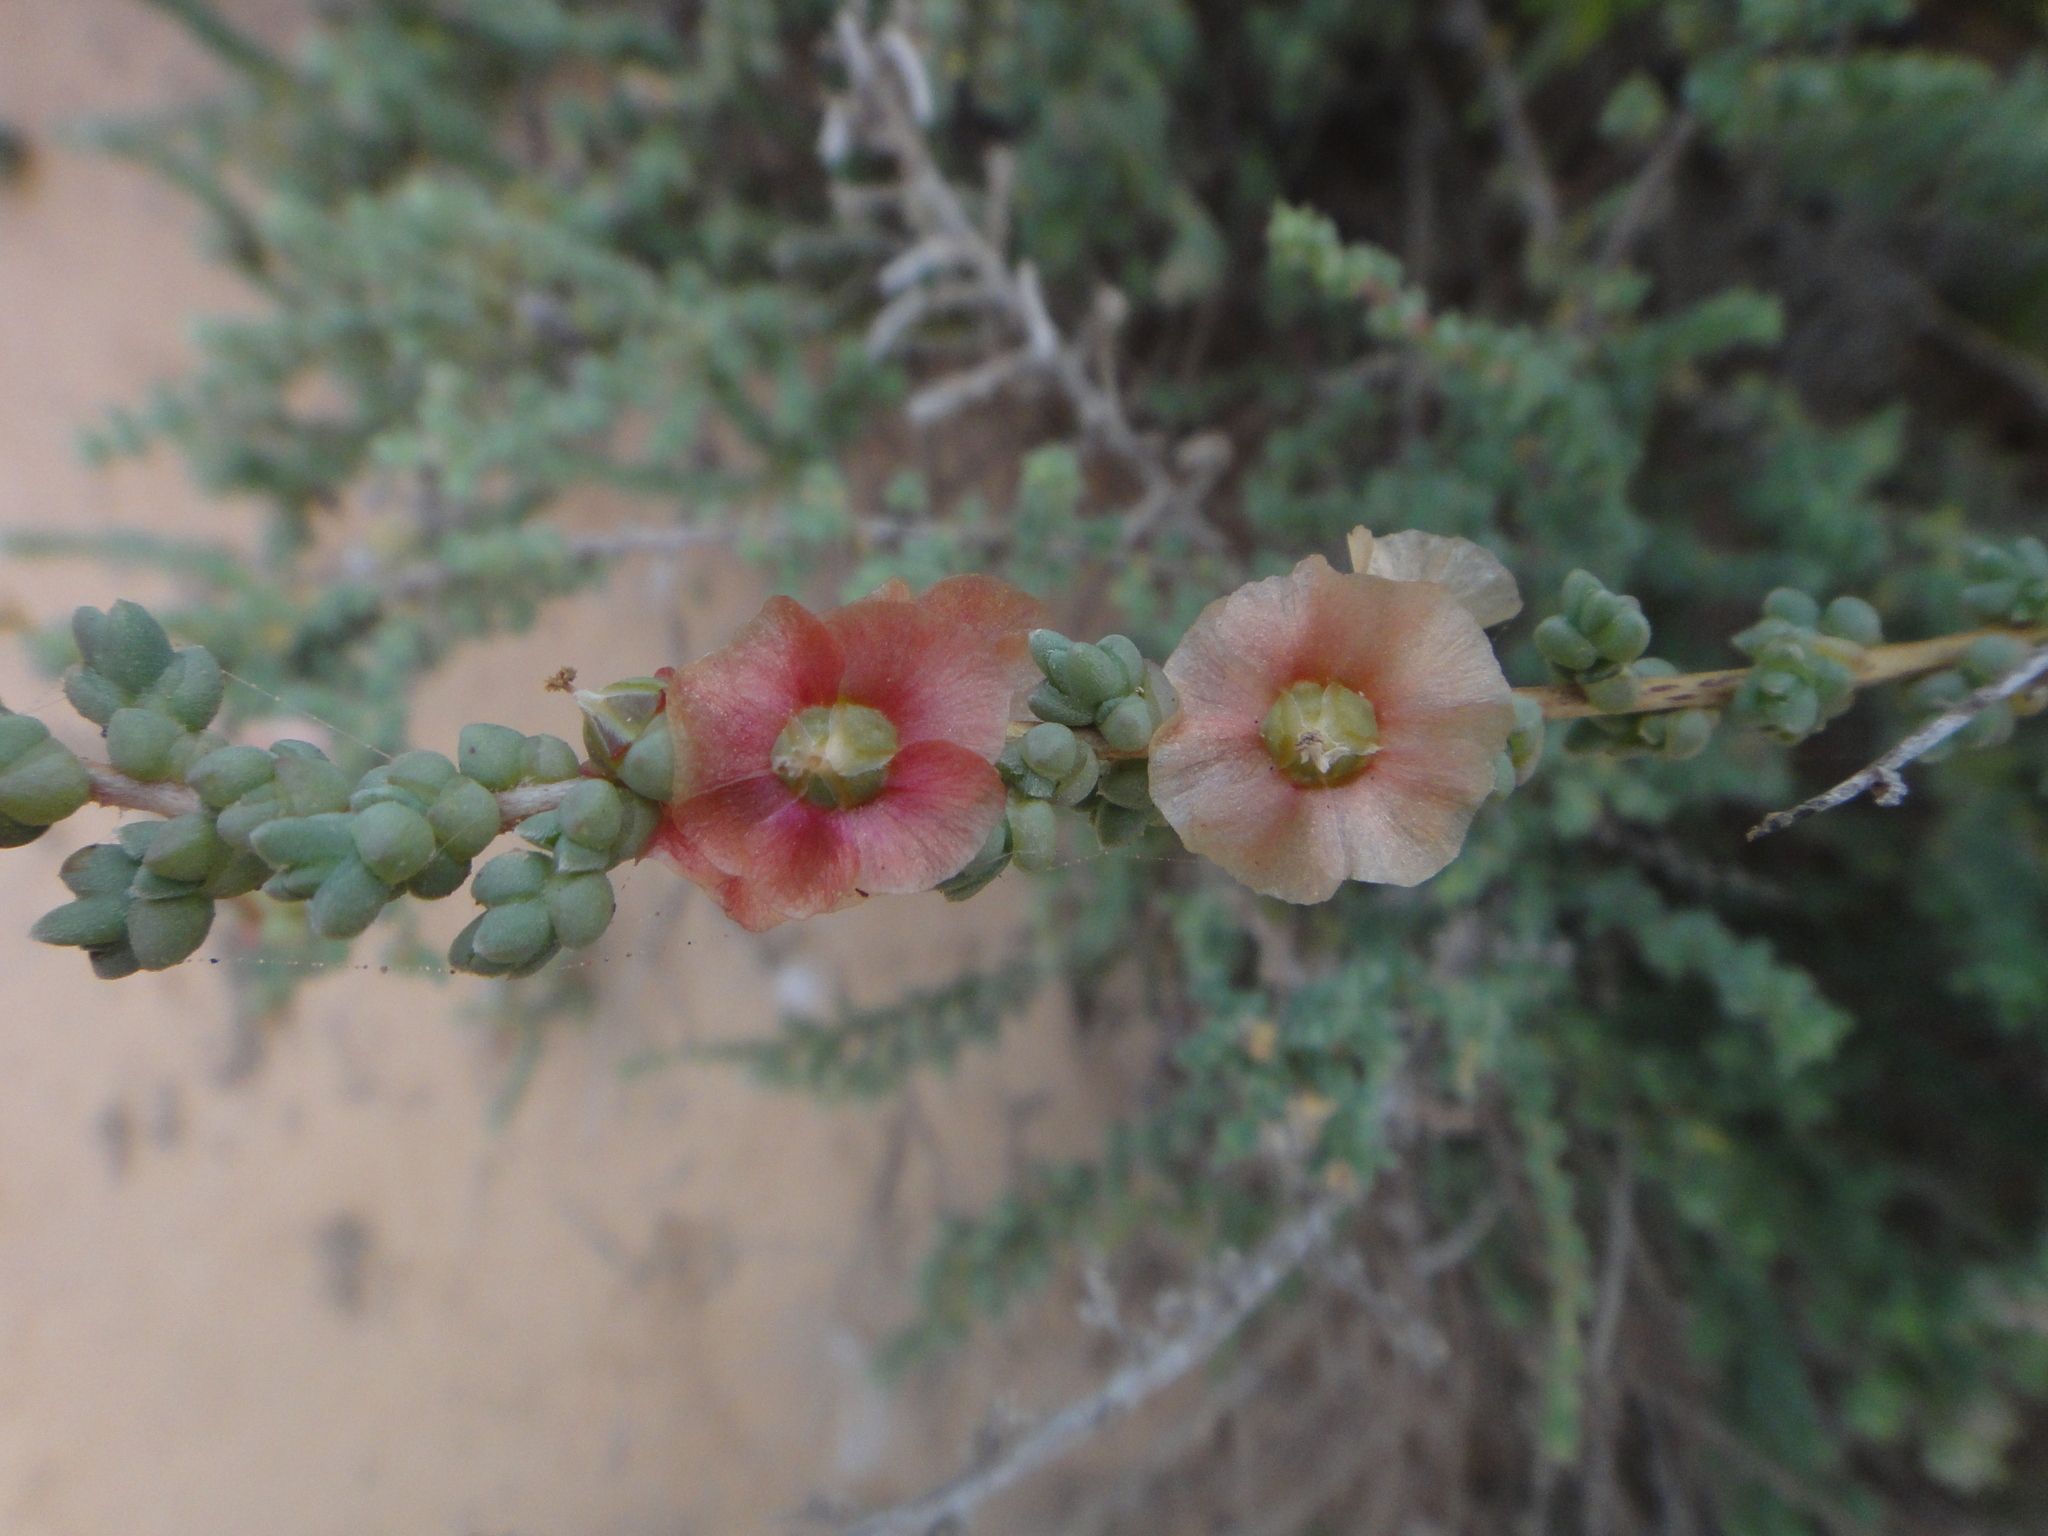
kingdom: Plantae
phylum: Tracheophyta
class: Magnoliopsida
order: Caryophyllales
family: Amaranthaceae
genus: Nitrosalsola
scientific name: Nitrosalsola vermiculata
